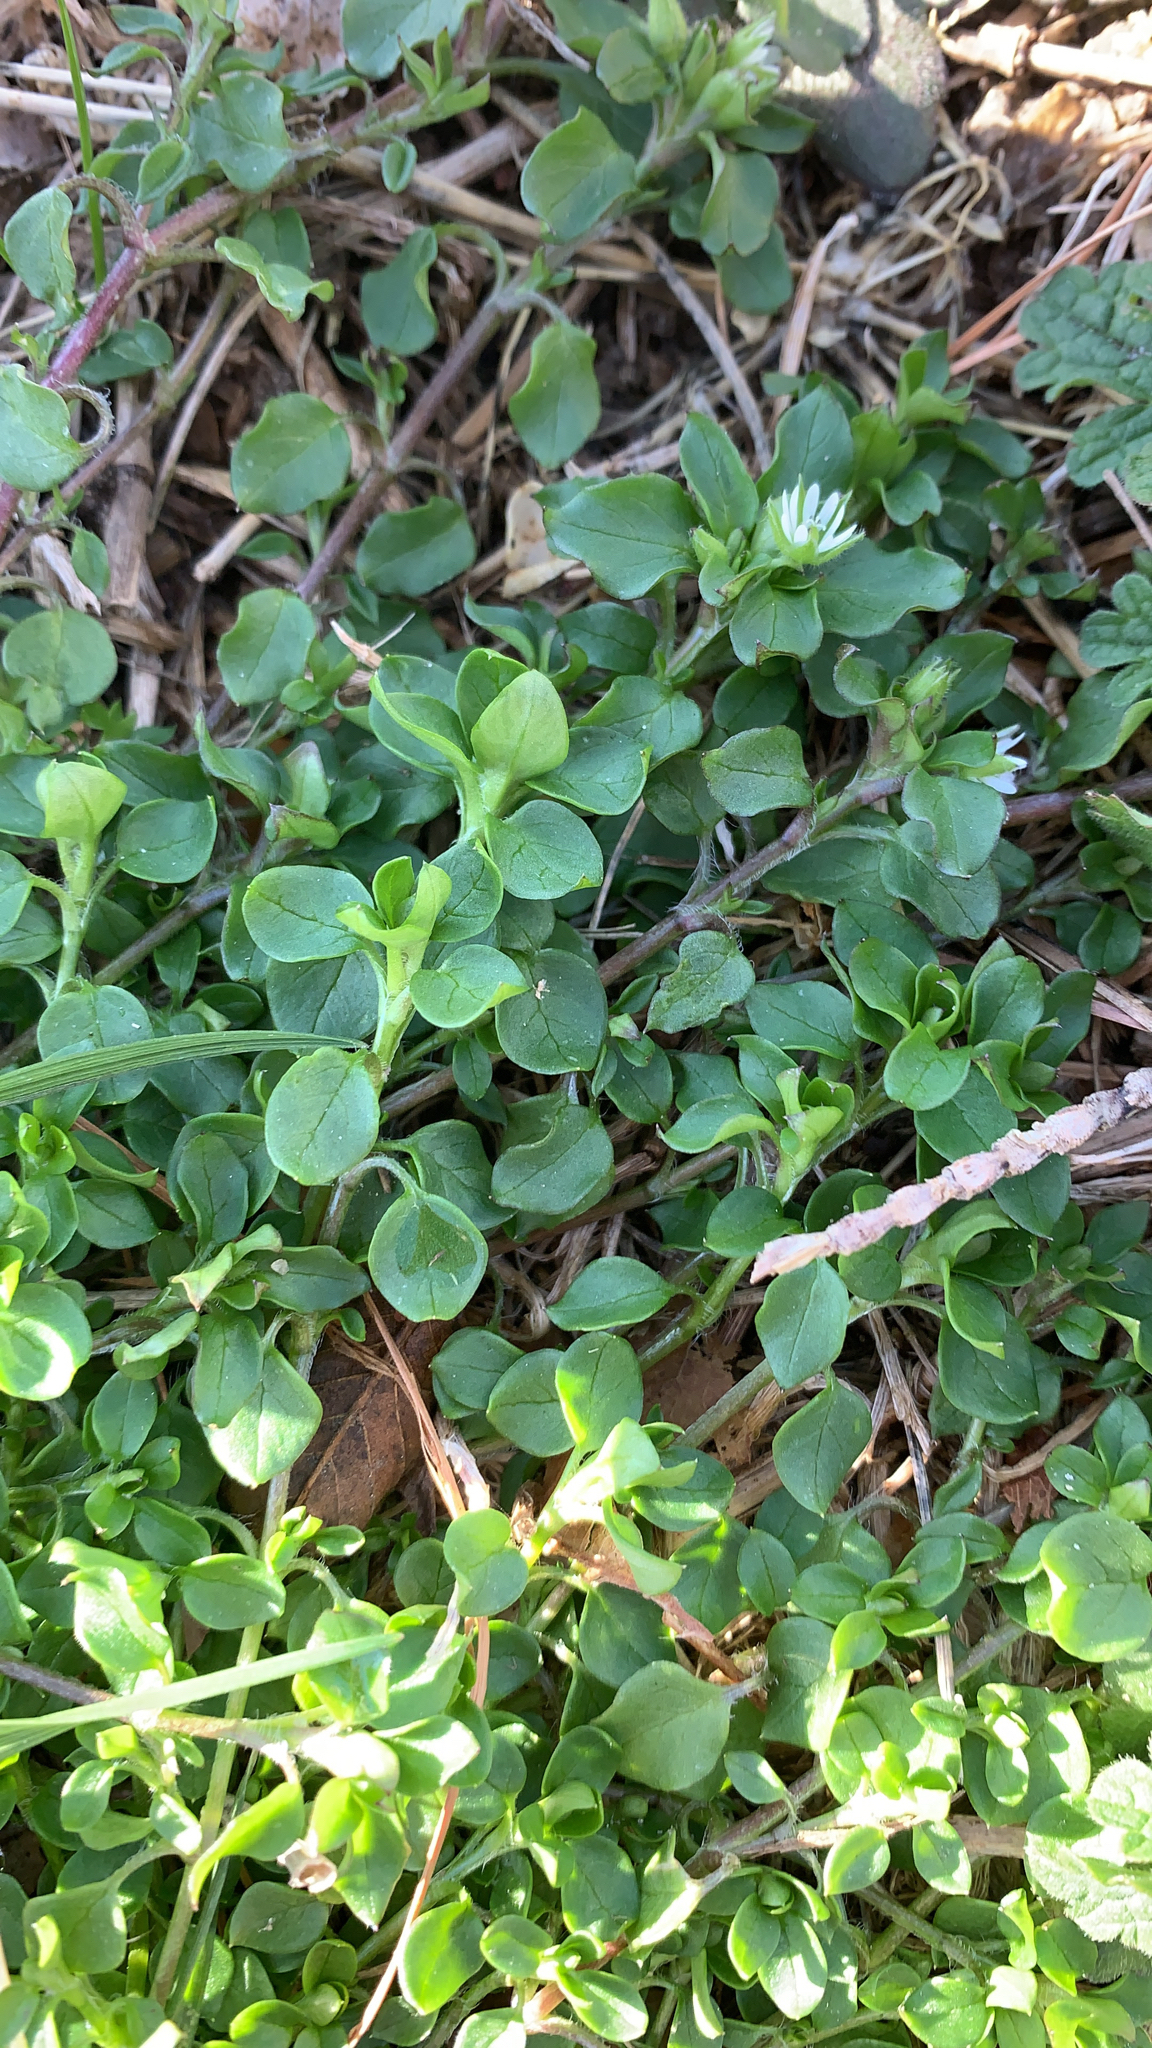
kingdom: Plantae
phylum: Tracheophyta
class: Magnoliopsida
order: Caryophyllales
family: Caryophyllaceae
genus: Stellaria
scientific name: Stellaria media
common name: Common chickweed
